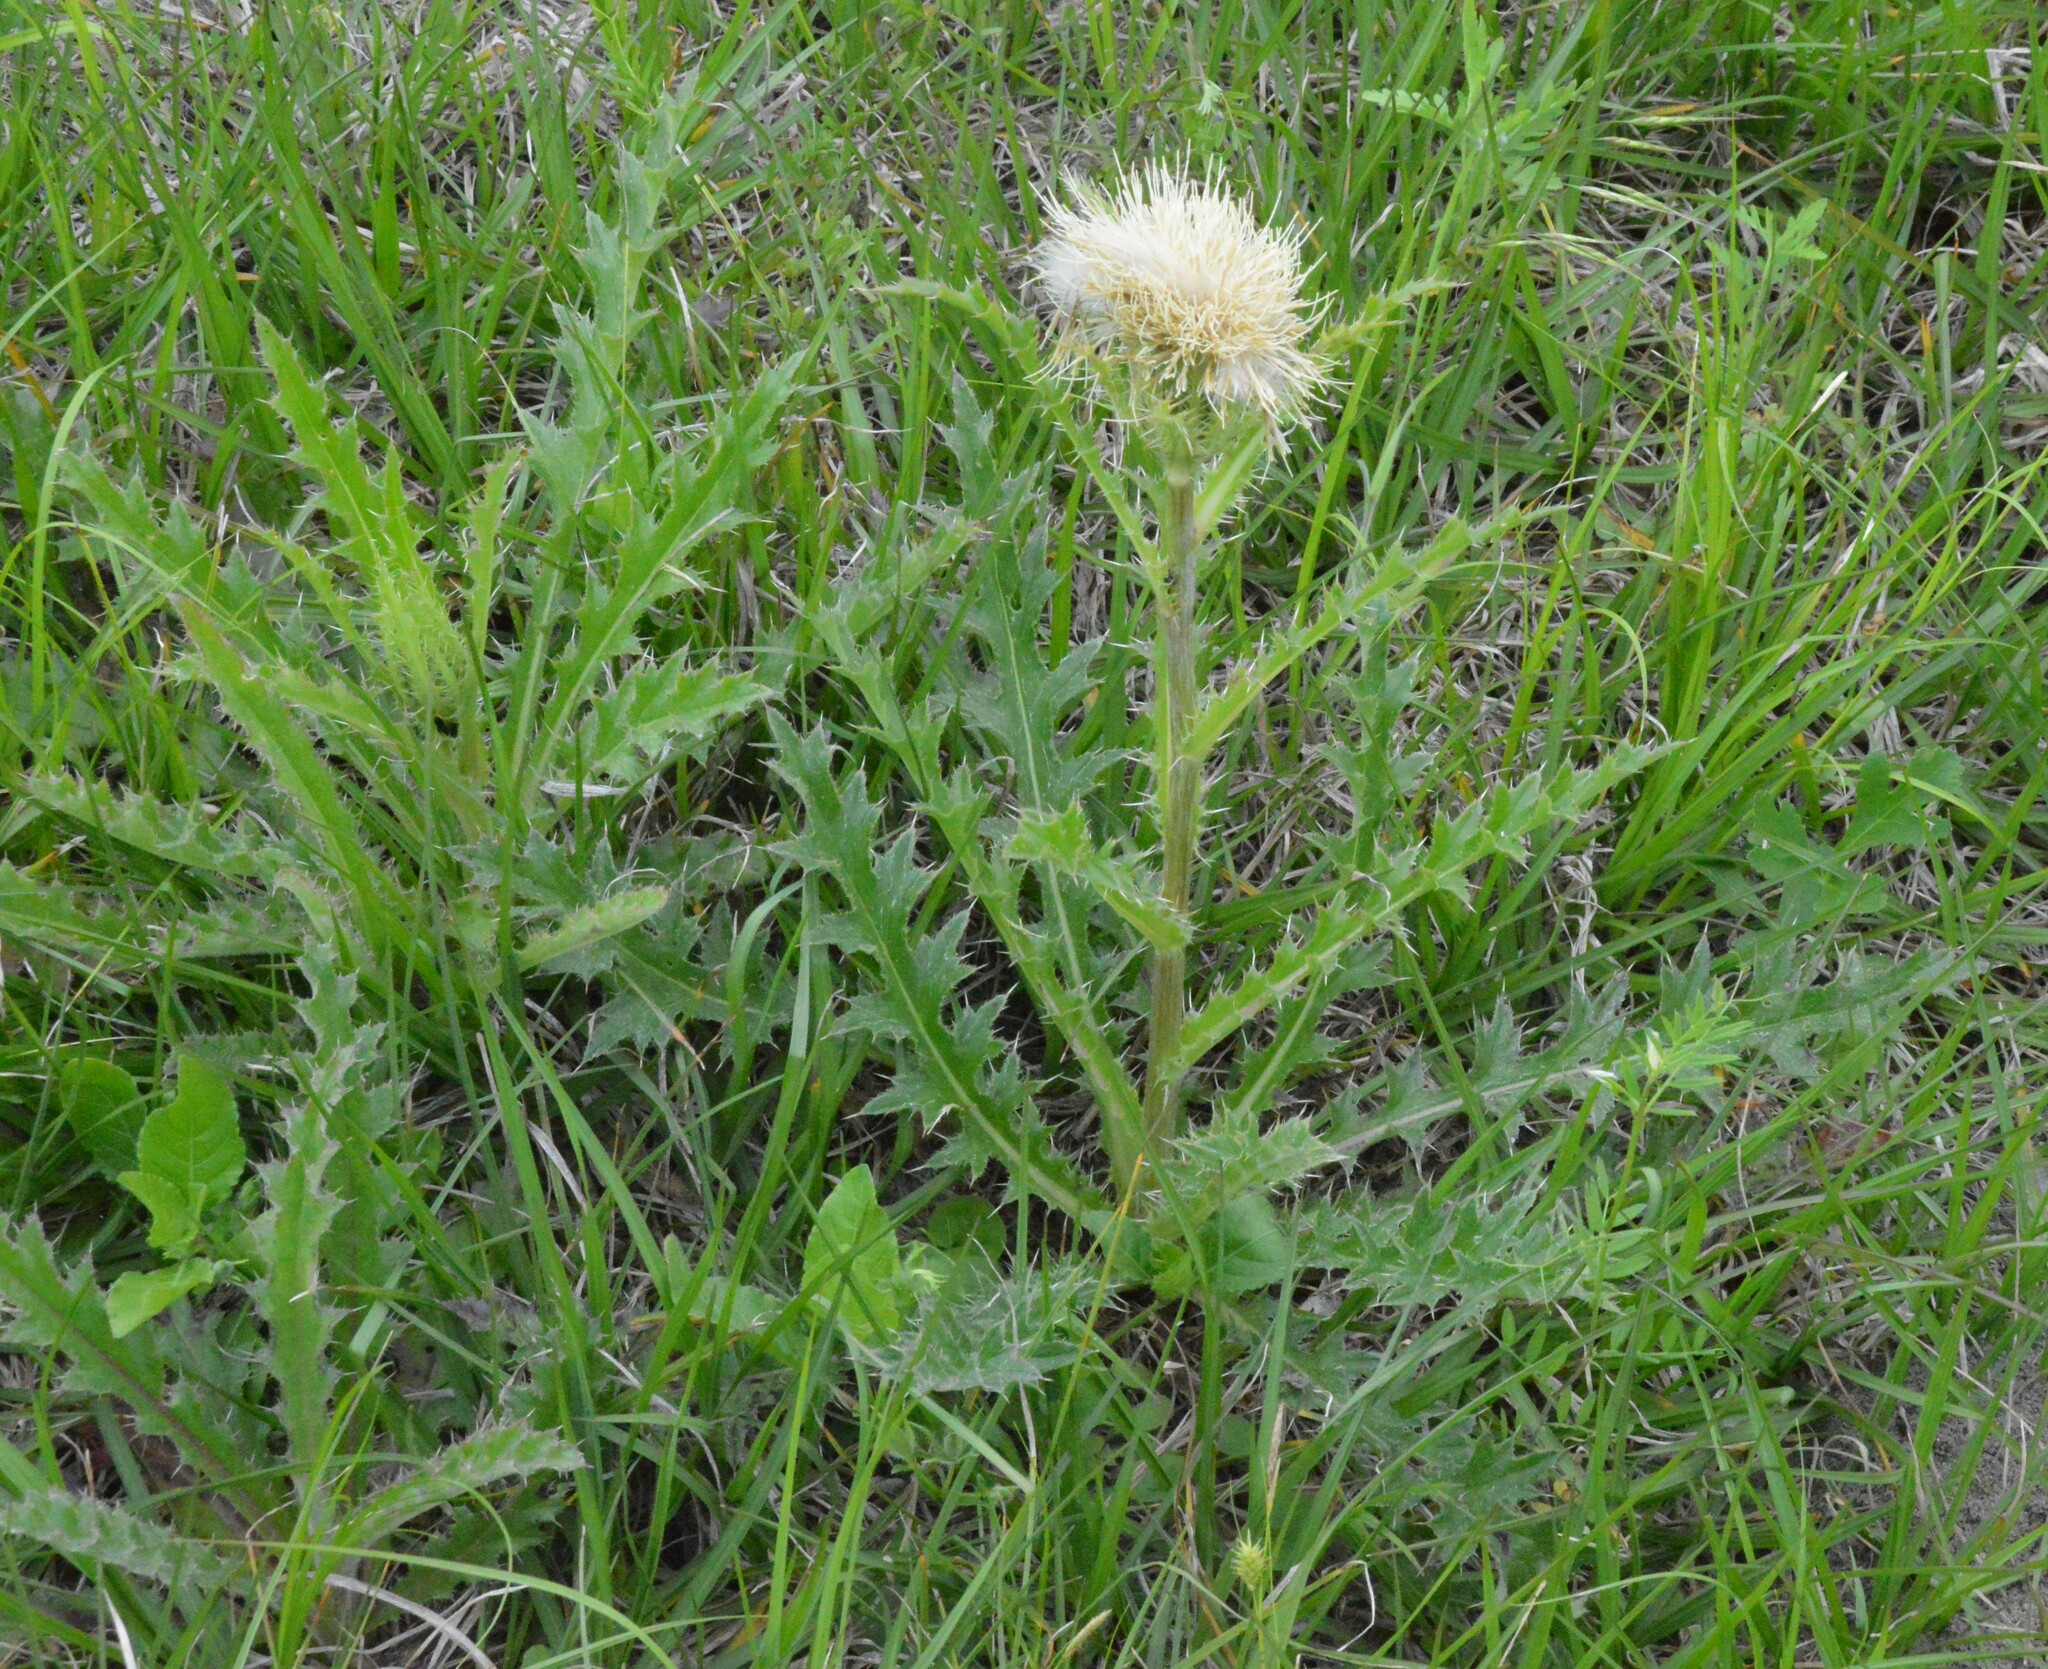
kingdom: Plantae
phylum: Tracheophyta
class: Magnoliopsida
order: Asterales
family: Asteraceae
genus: Cirsium
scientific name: Cirsium horridulum
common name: Bristly thistle
